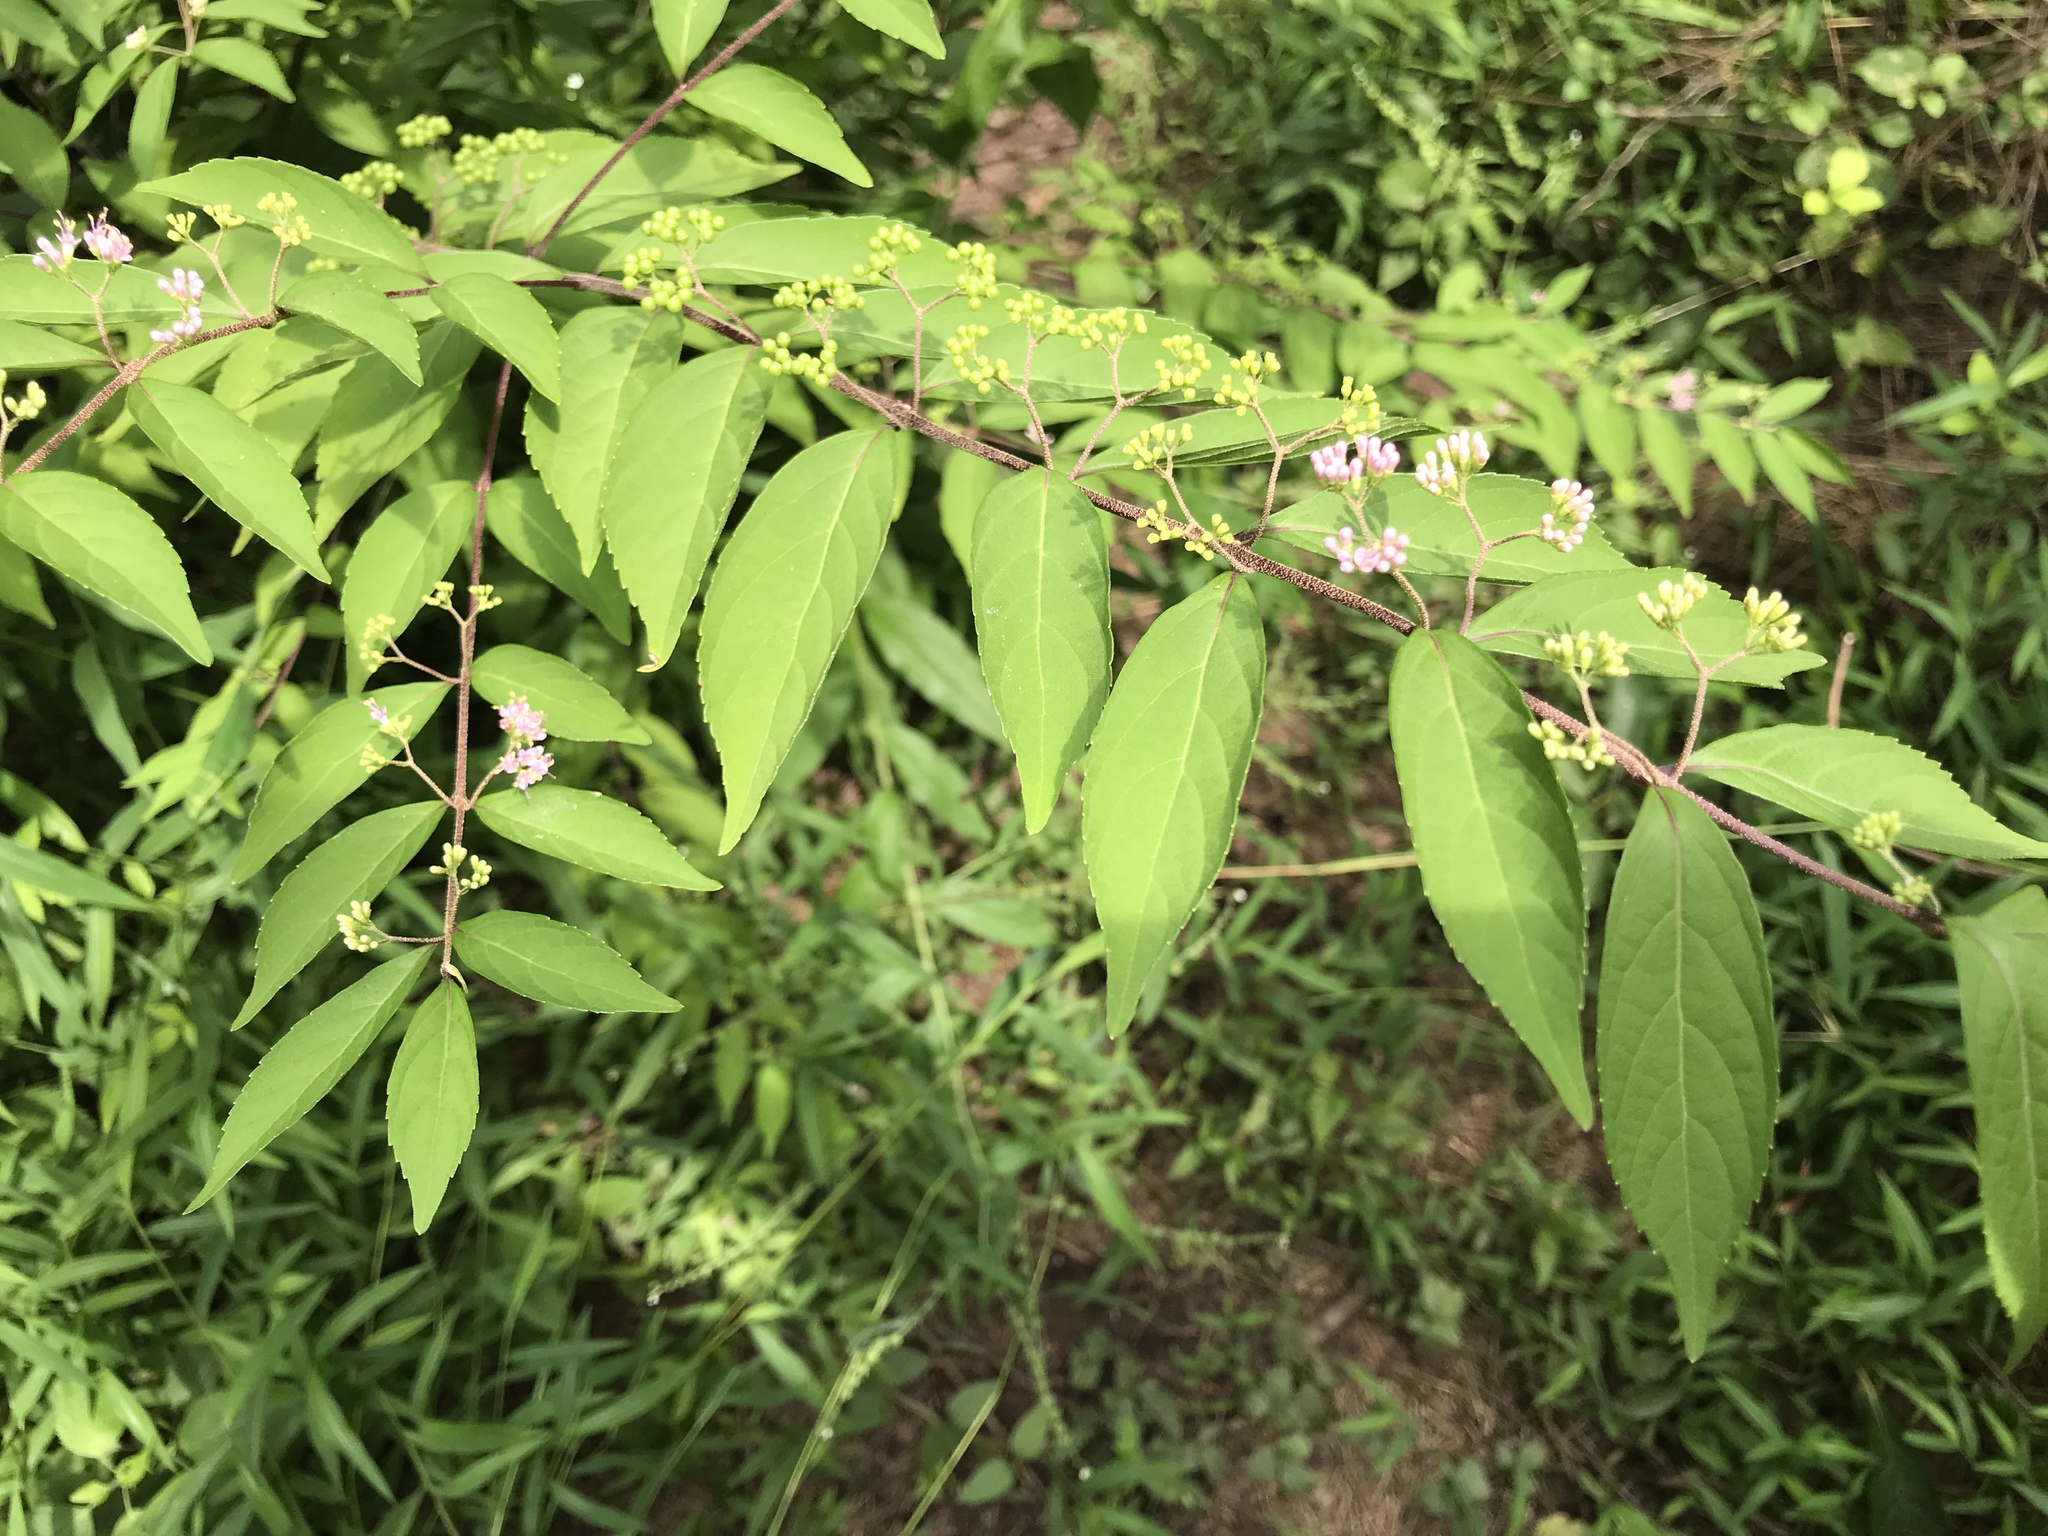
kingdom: Plantae
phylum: Tracheophyta
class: Magnoliopsida
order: Lamiales
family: Lamiaceae
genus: Callicarpa
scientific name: Callicarpa dichotoma
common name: Purple beauty-berry
